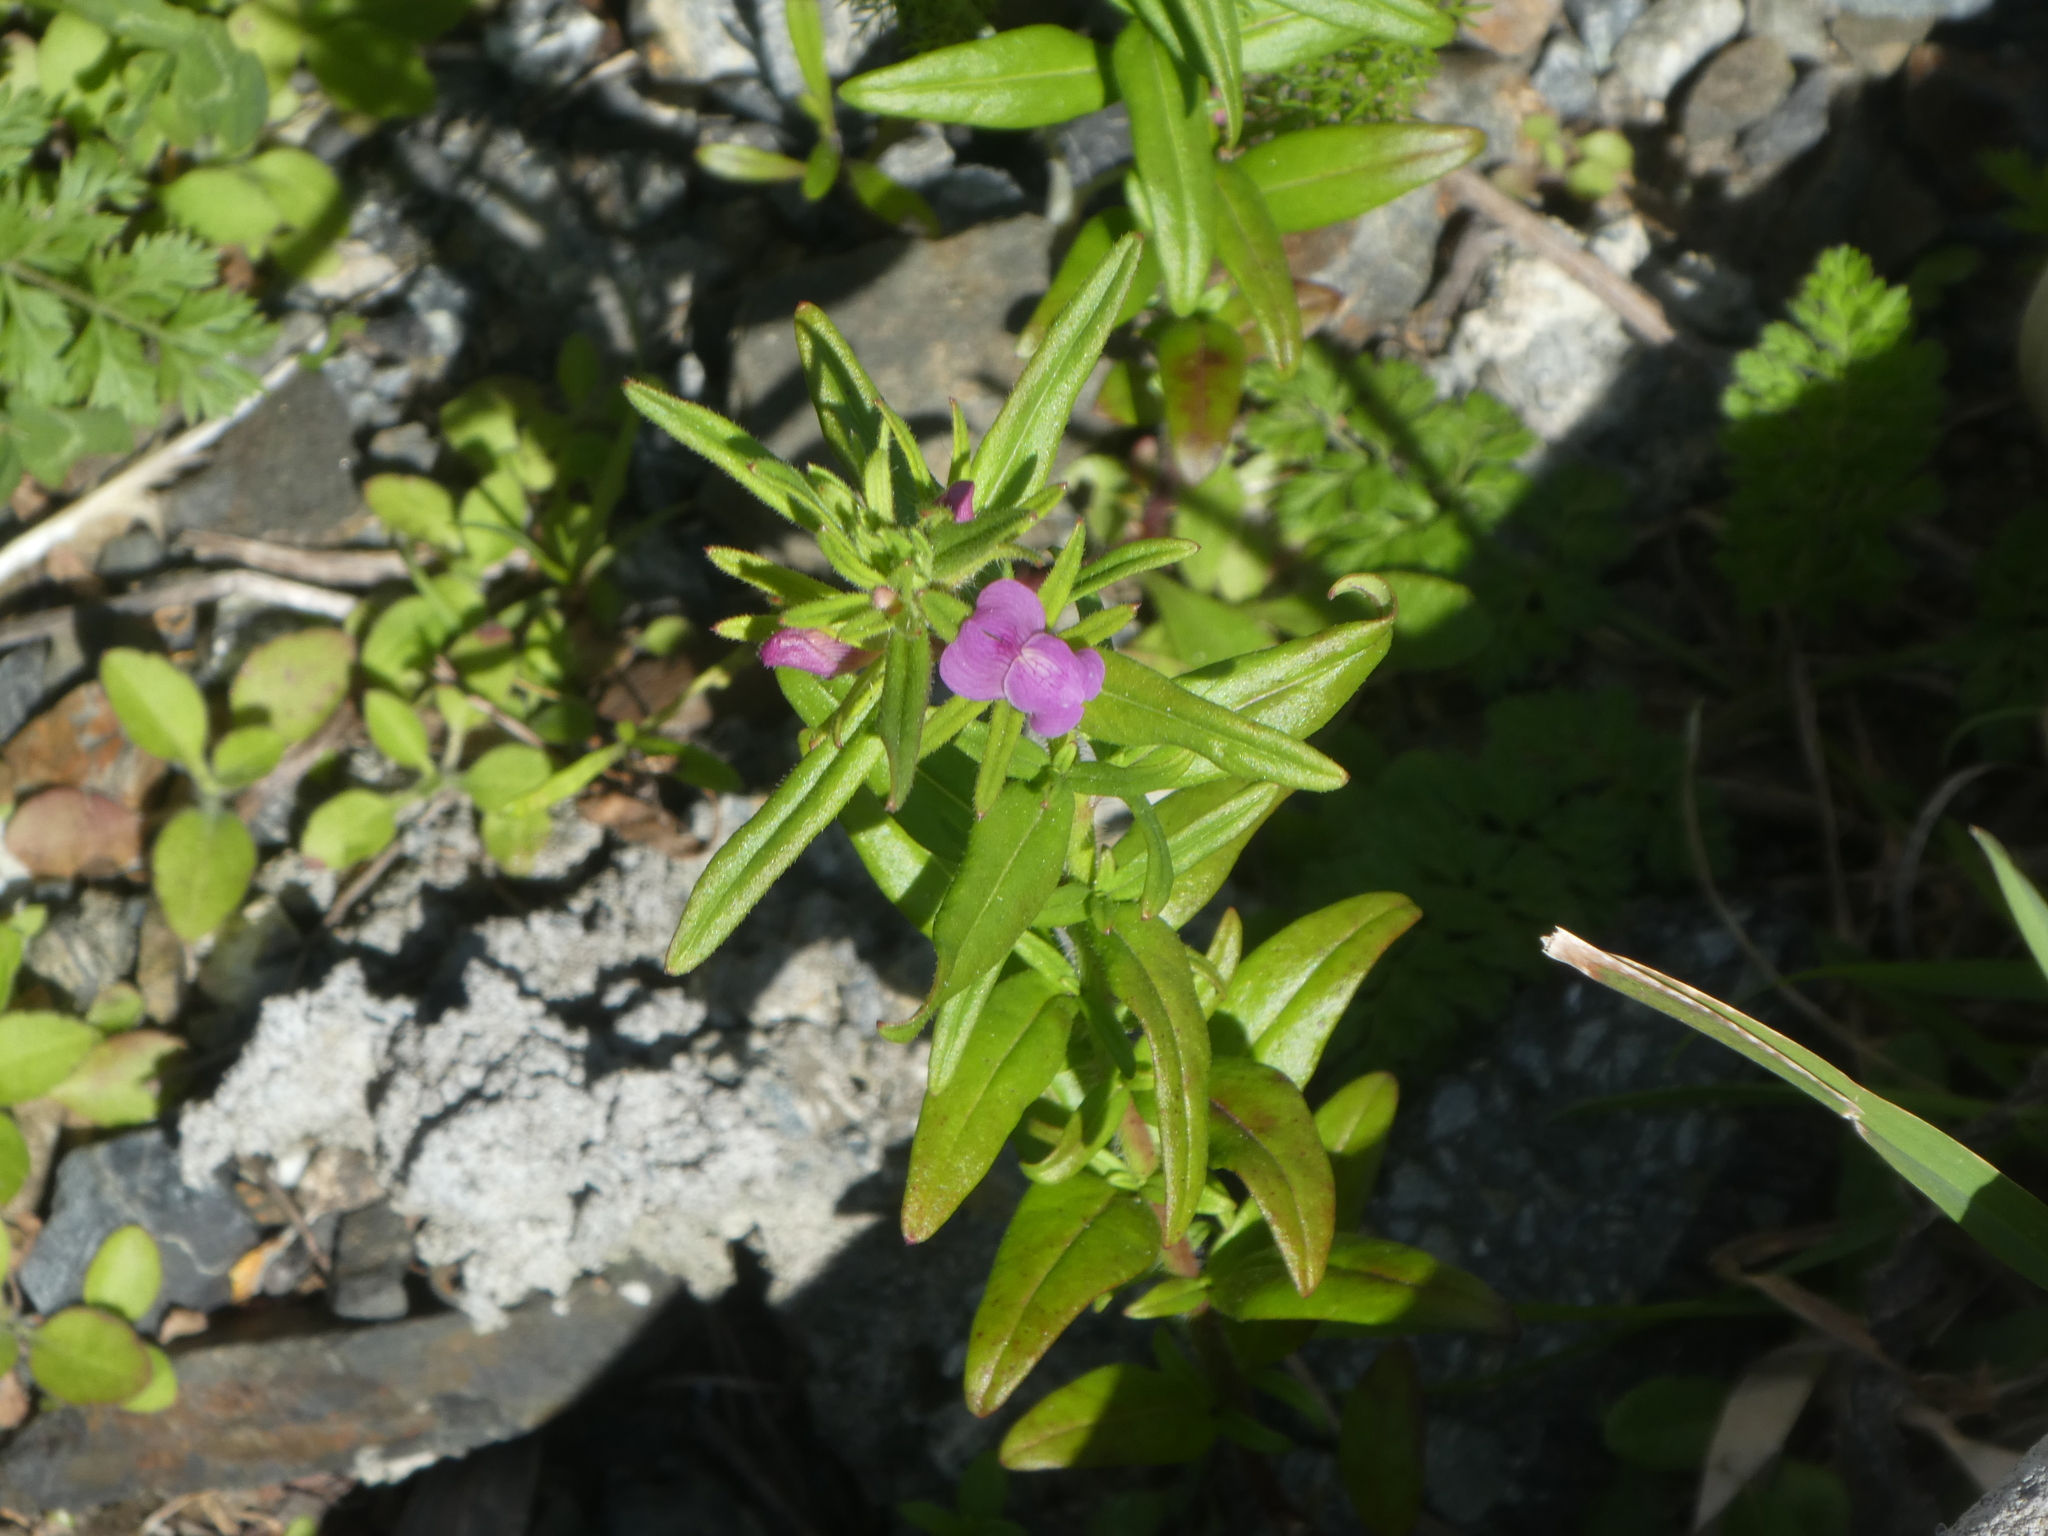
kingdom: Plantae
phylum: Tracheophyta
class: Magnoliopsida
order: Lamiales
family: Plantaginaceae
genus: Misopates
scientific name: Misopates orontium
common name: Weasel's-snout
